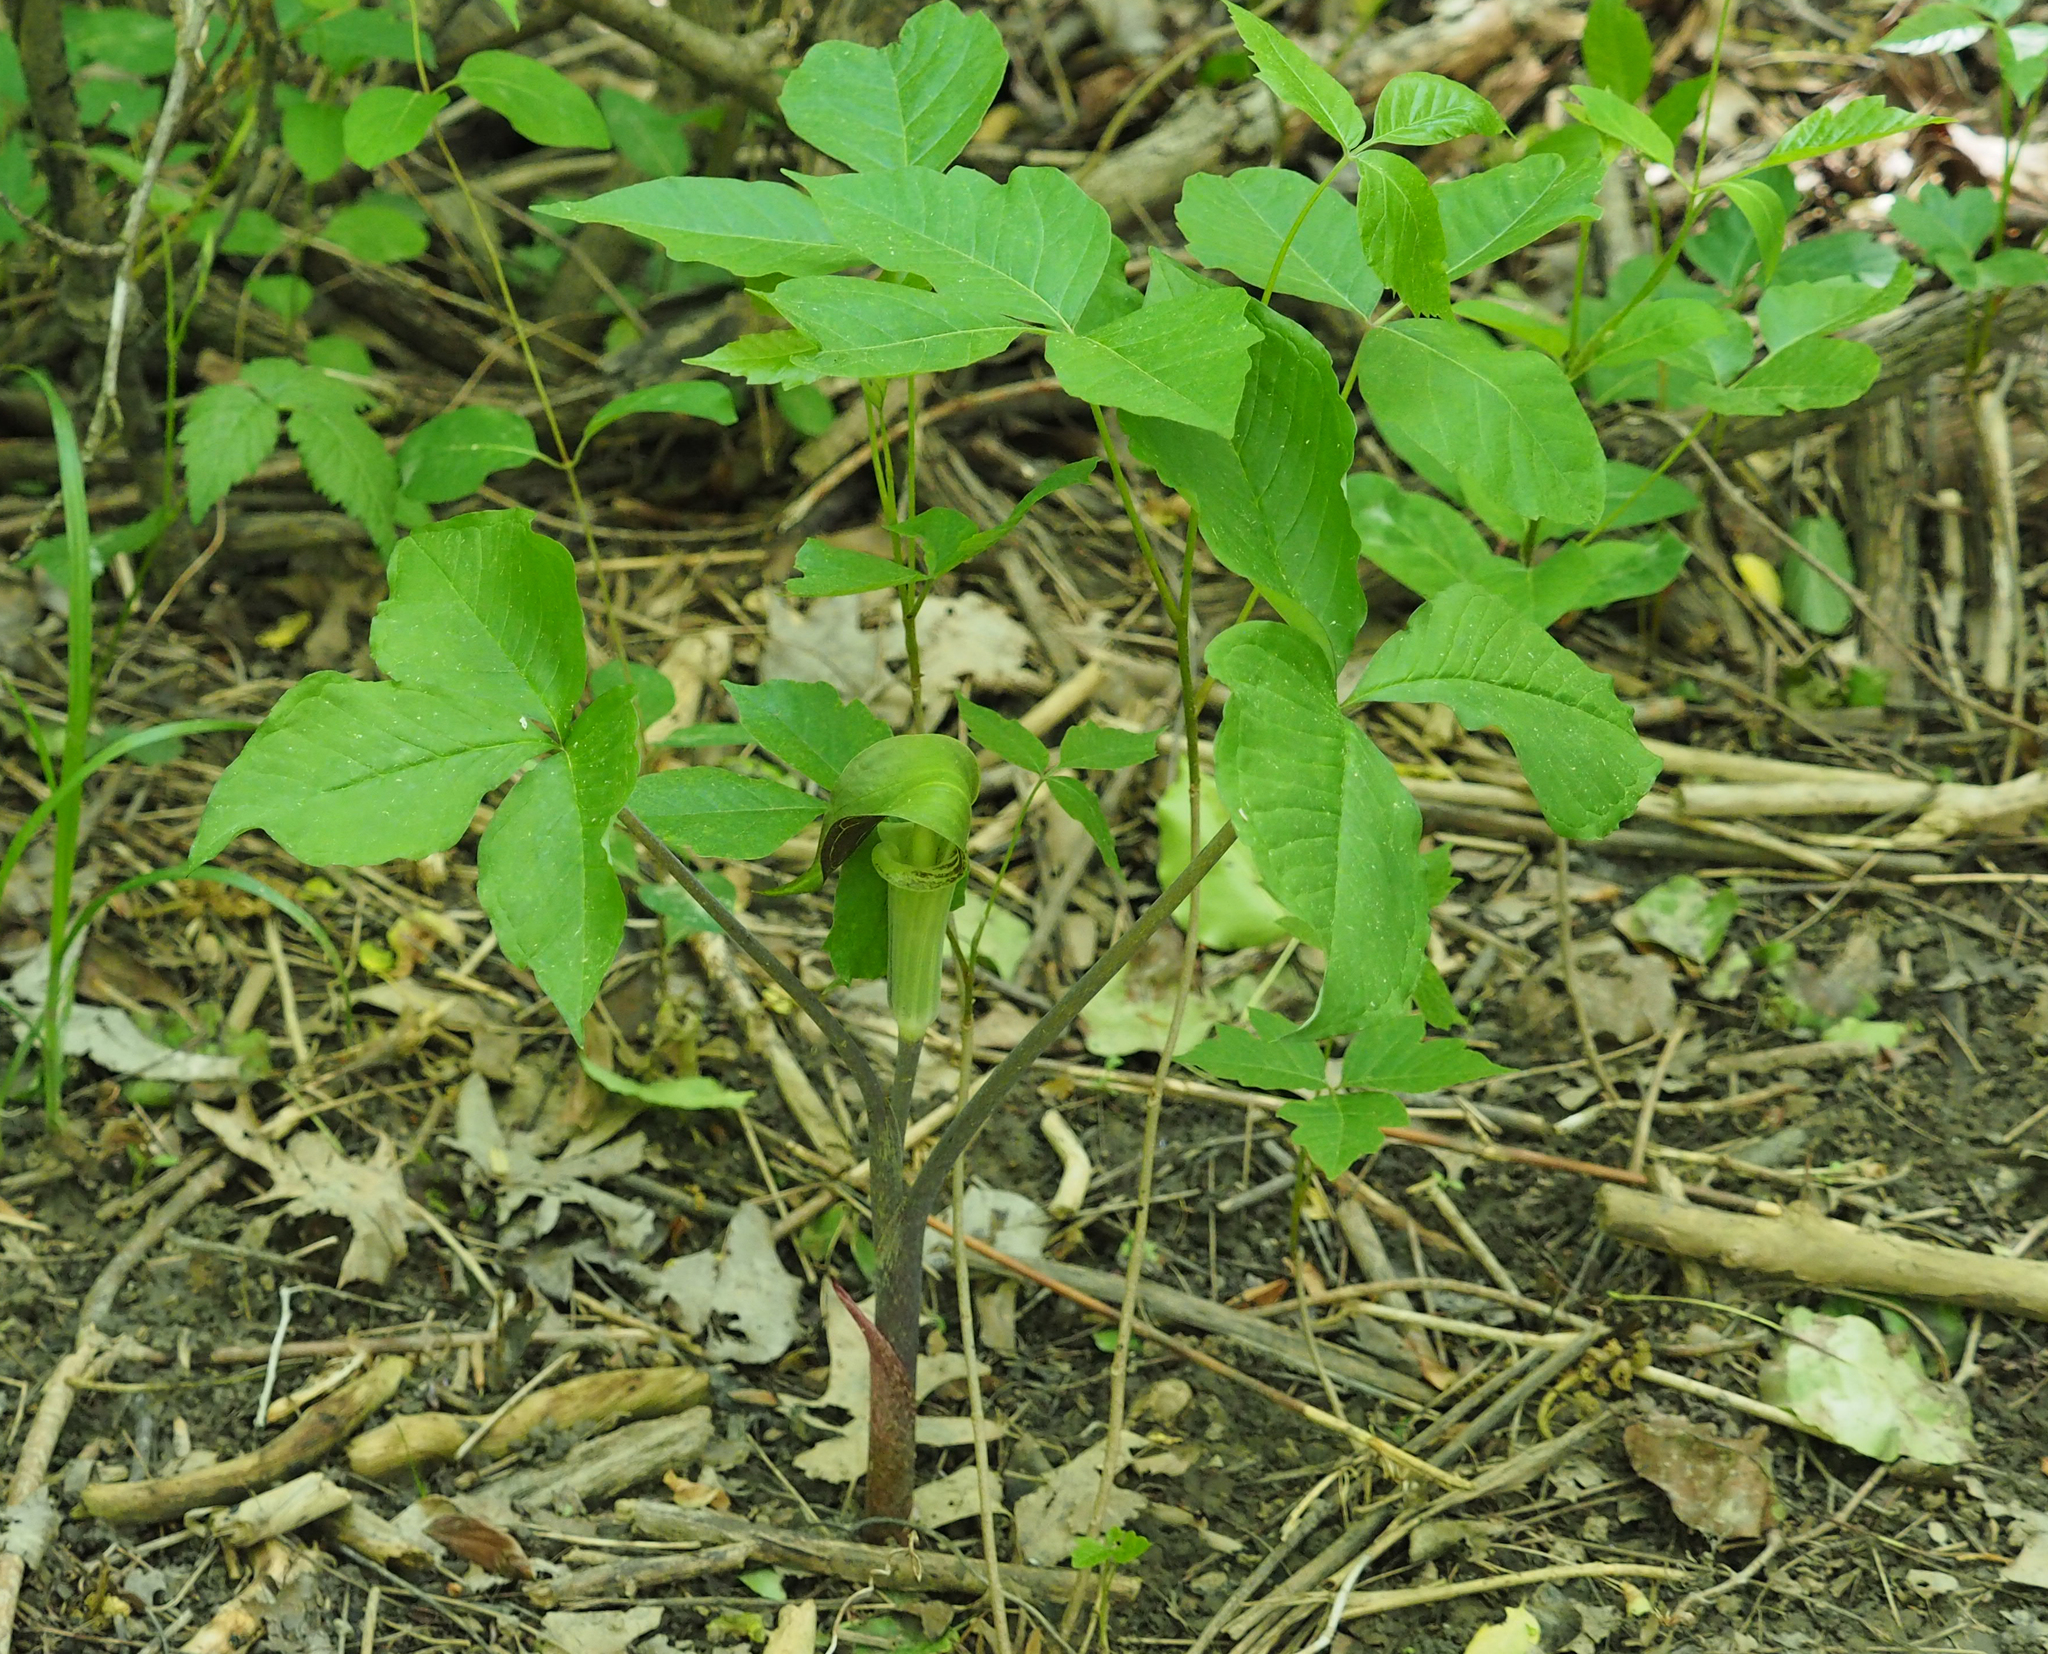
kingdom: Plantae
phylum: Tracheophyta
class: Liliopsida
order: Alismatales
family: Araceae
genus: Arisaema
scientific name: Arisaema triphyllum
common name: Jack-in-the-pulpit
